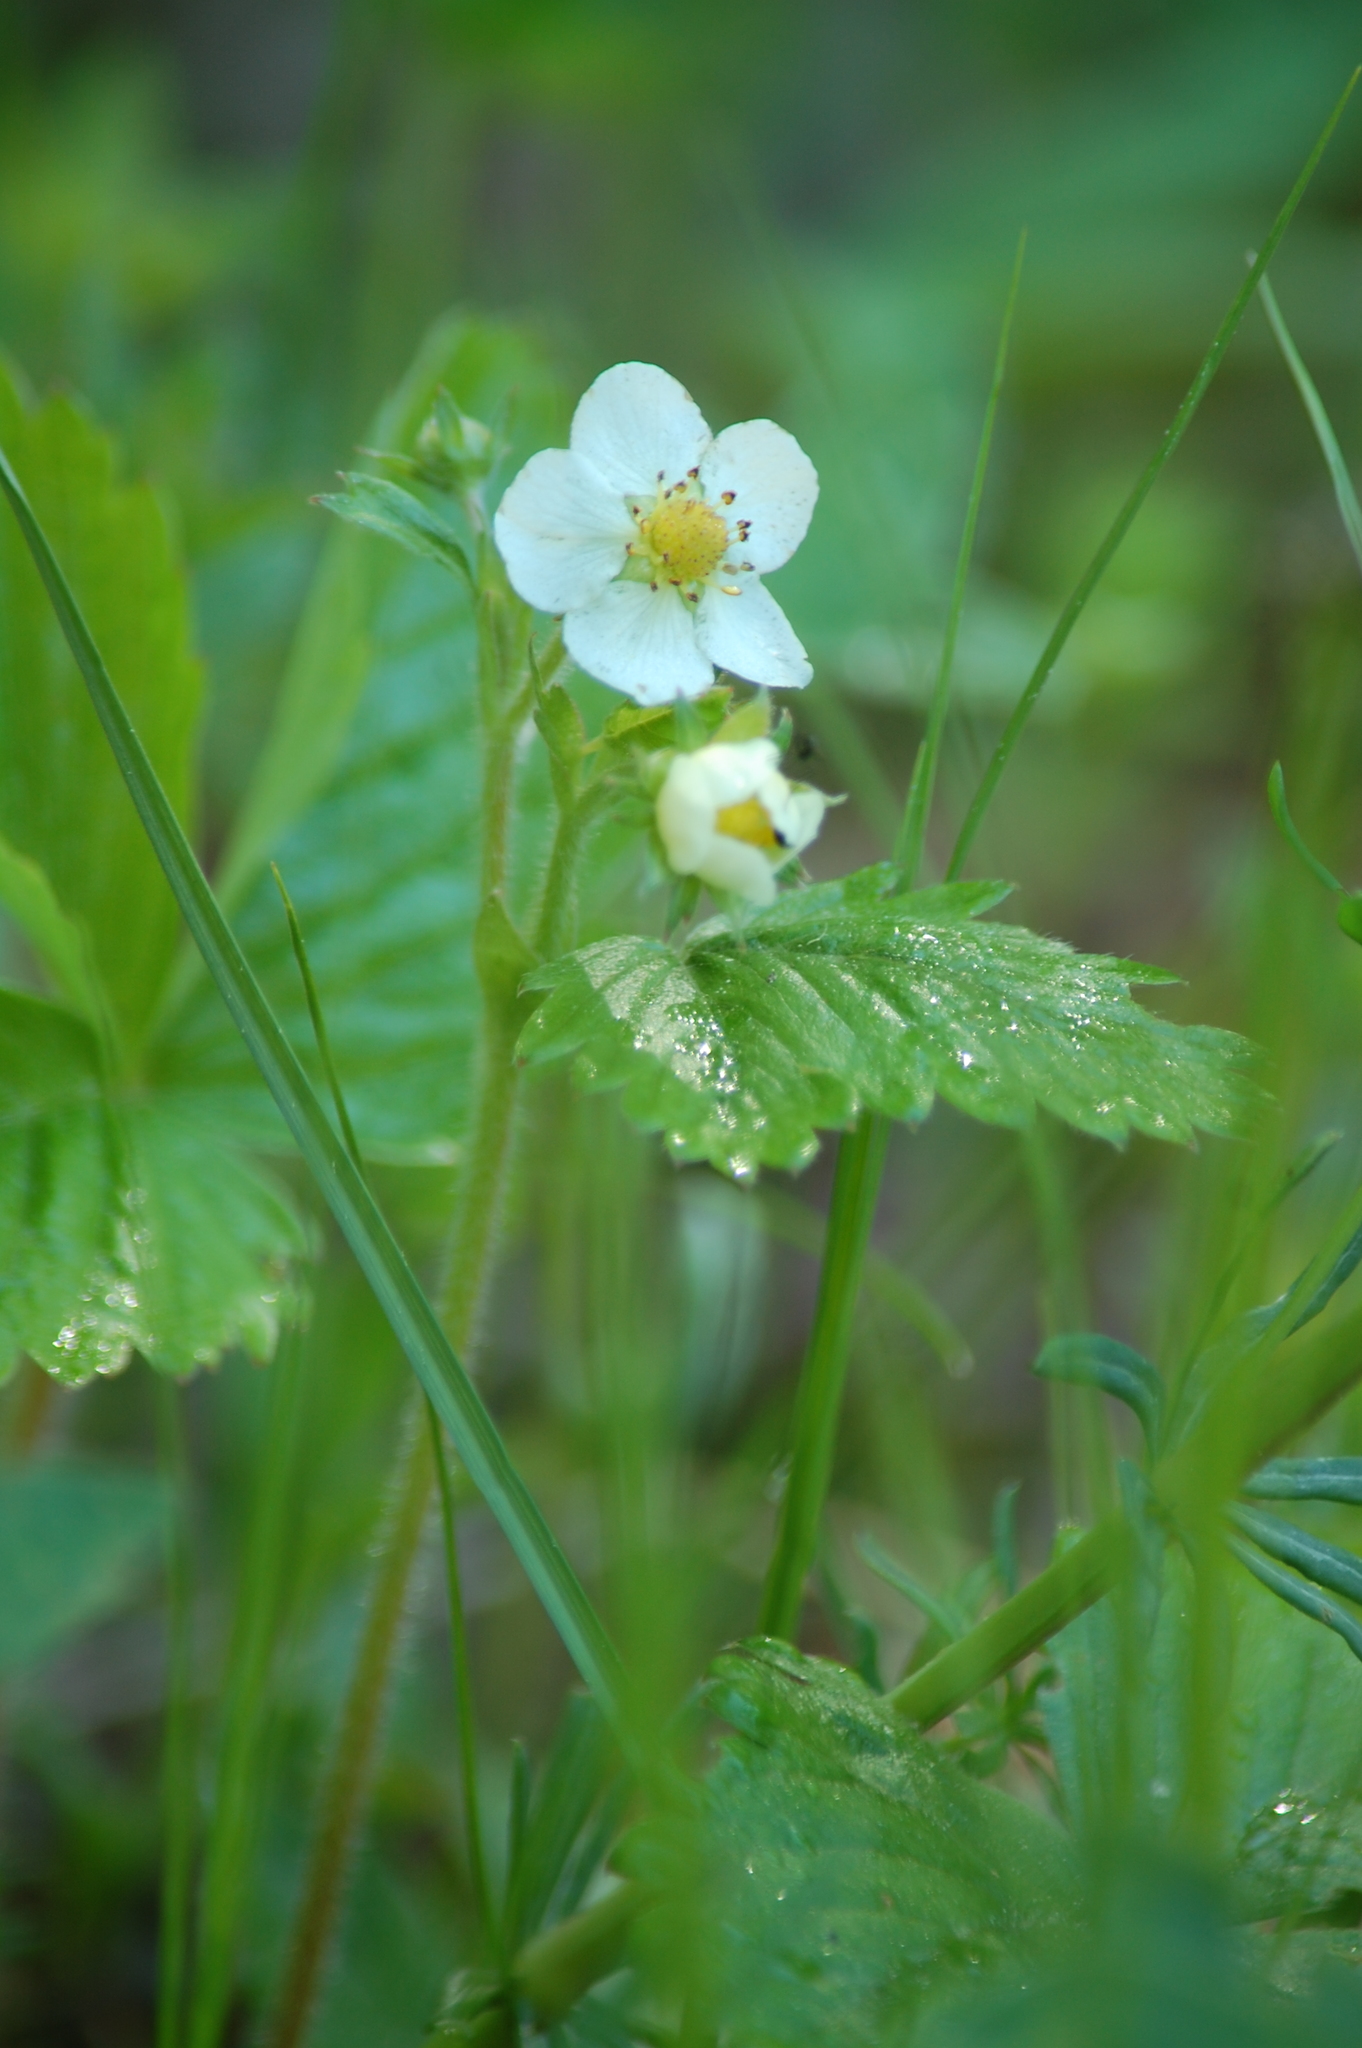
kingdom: Plantae
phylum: Tracheophyta
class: Magnoliopsida
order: Rosales
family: Rosaceae
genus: Fragaria
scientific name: Fragaria vesca
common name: Wild strawberry
